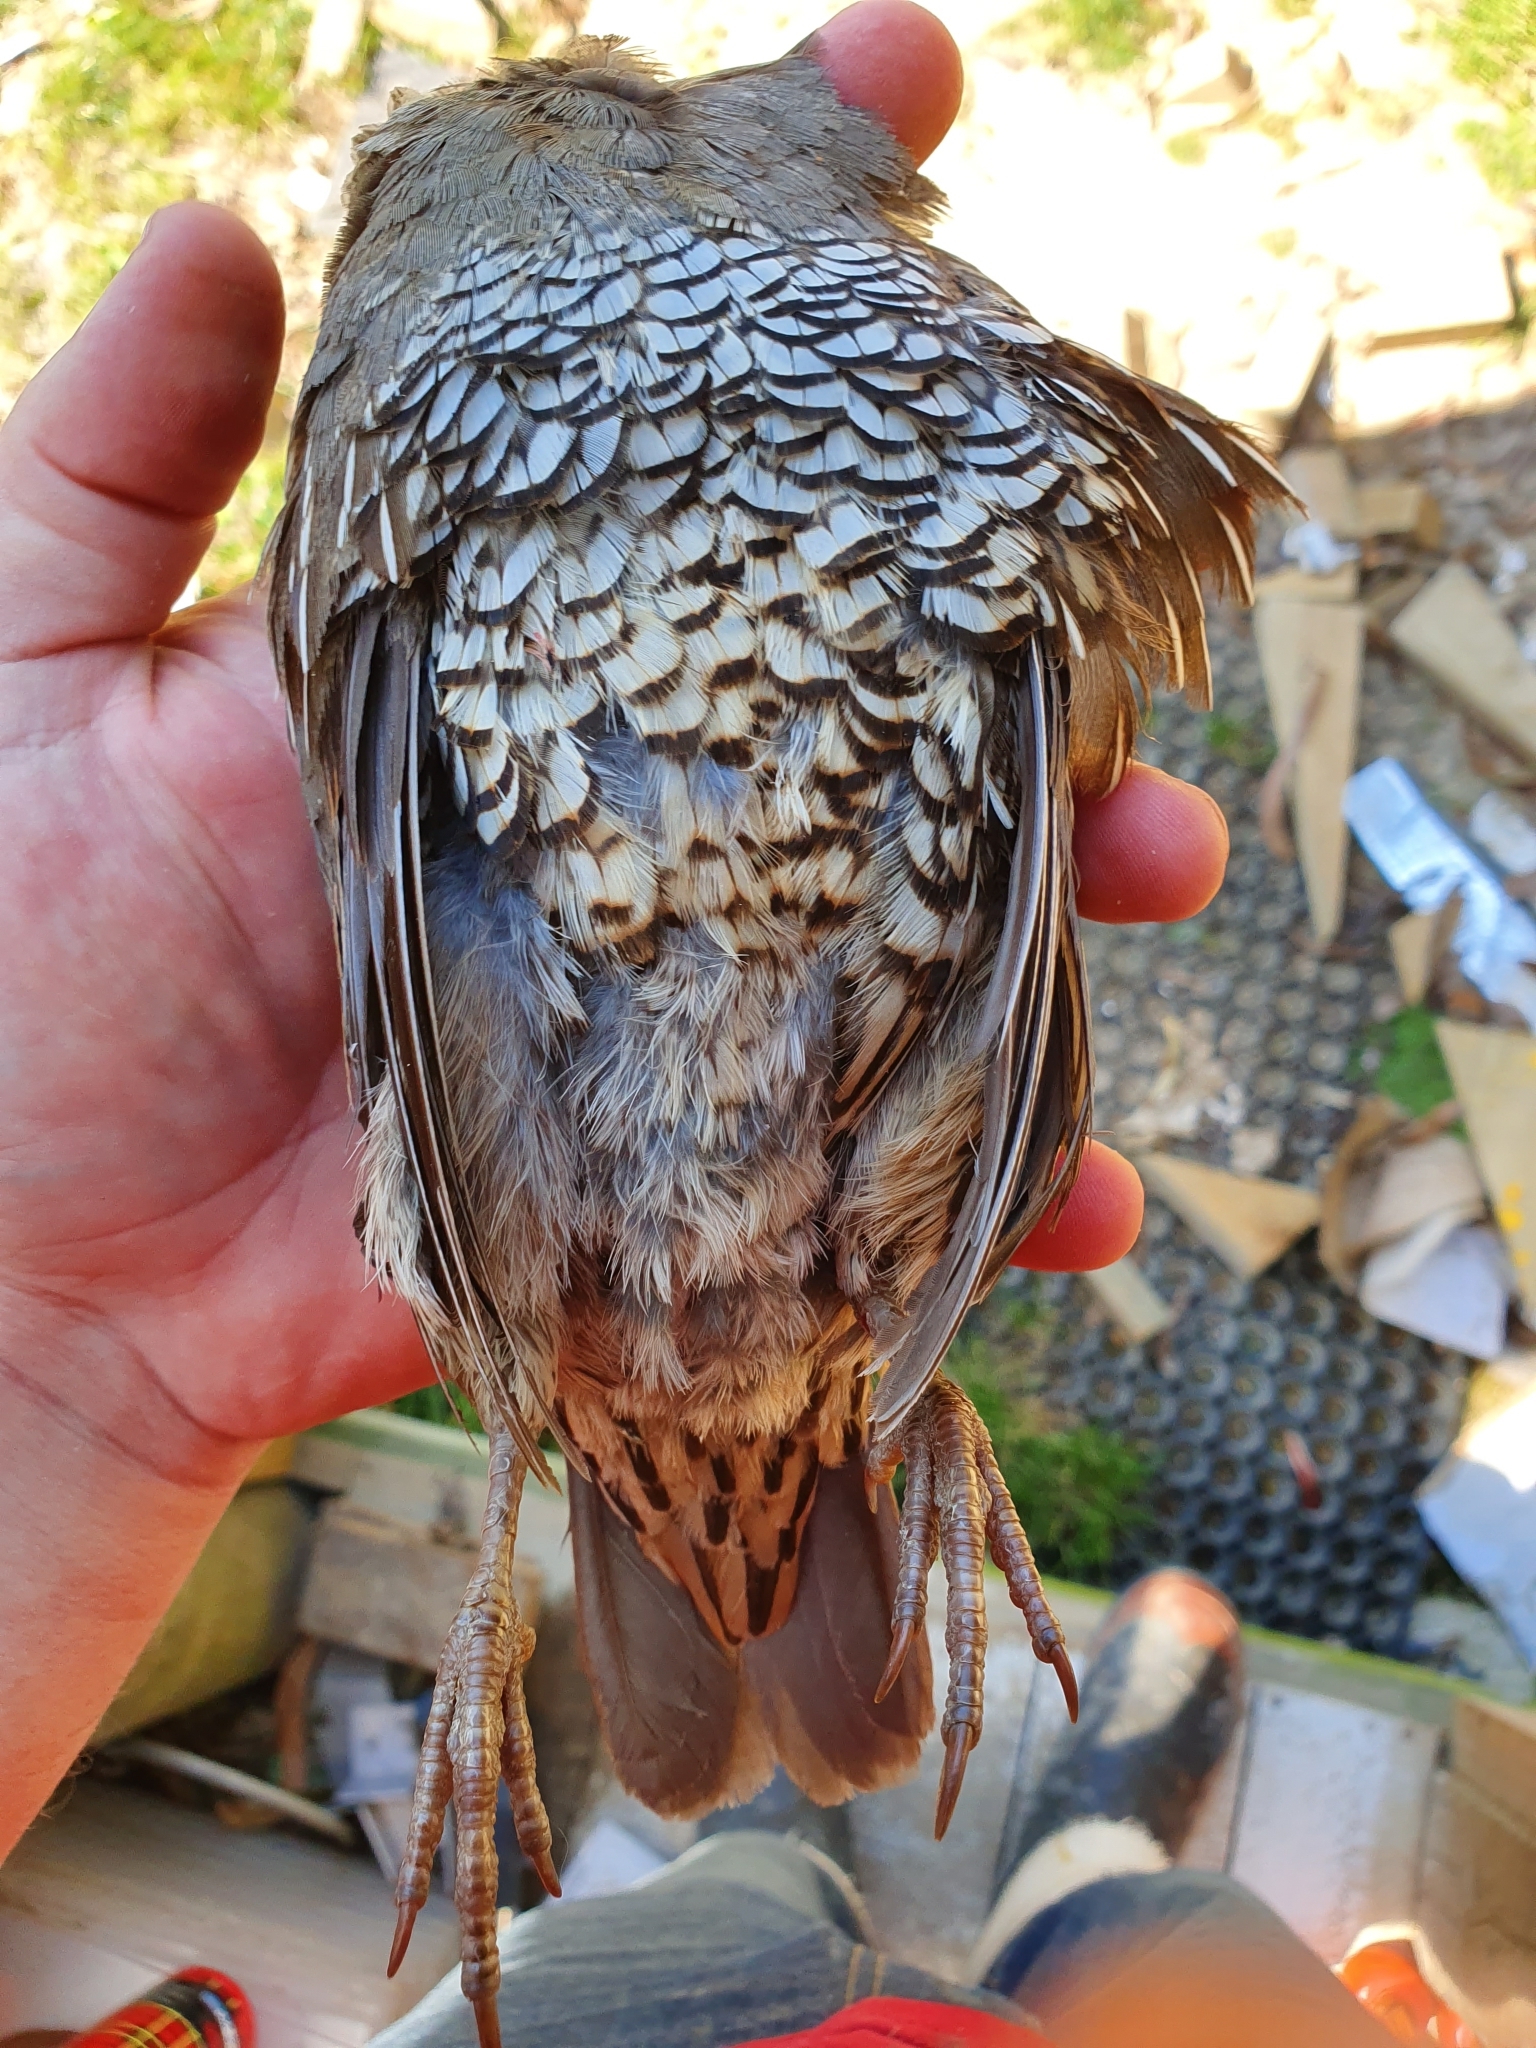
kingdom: Animalia
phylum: Chordata
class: Aves
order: Galliformes
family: Odontophoridae
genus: Callipepla
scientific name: Callipepla californica
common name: California quail
